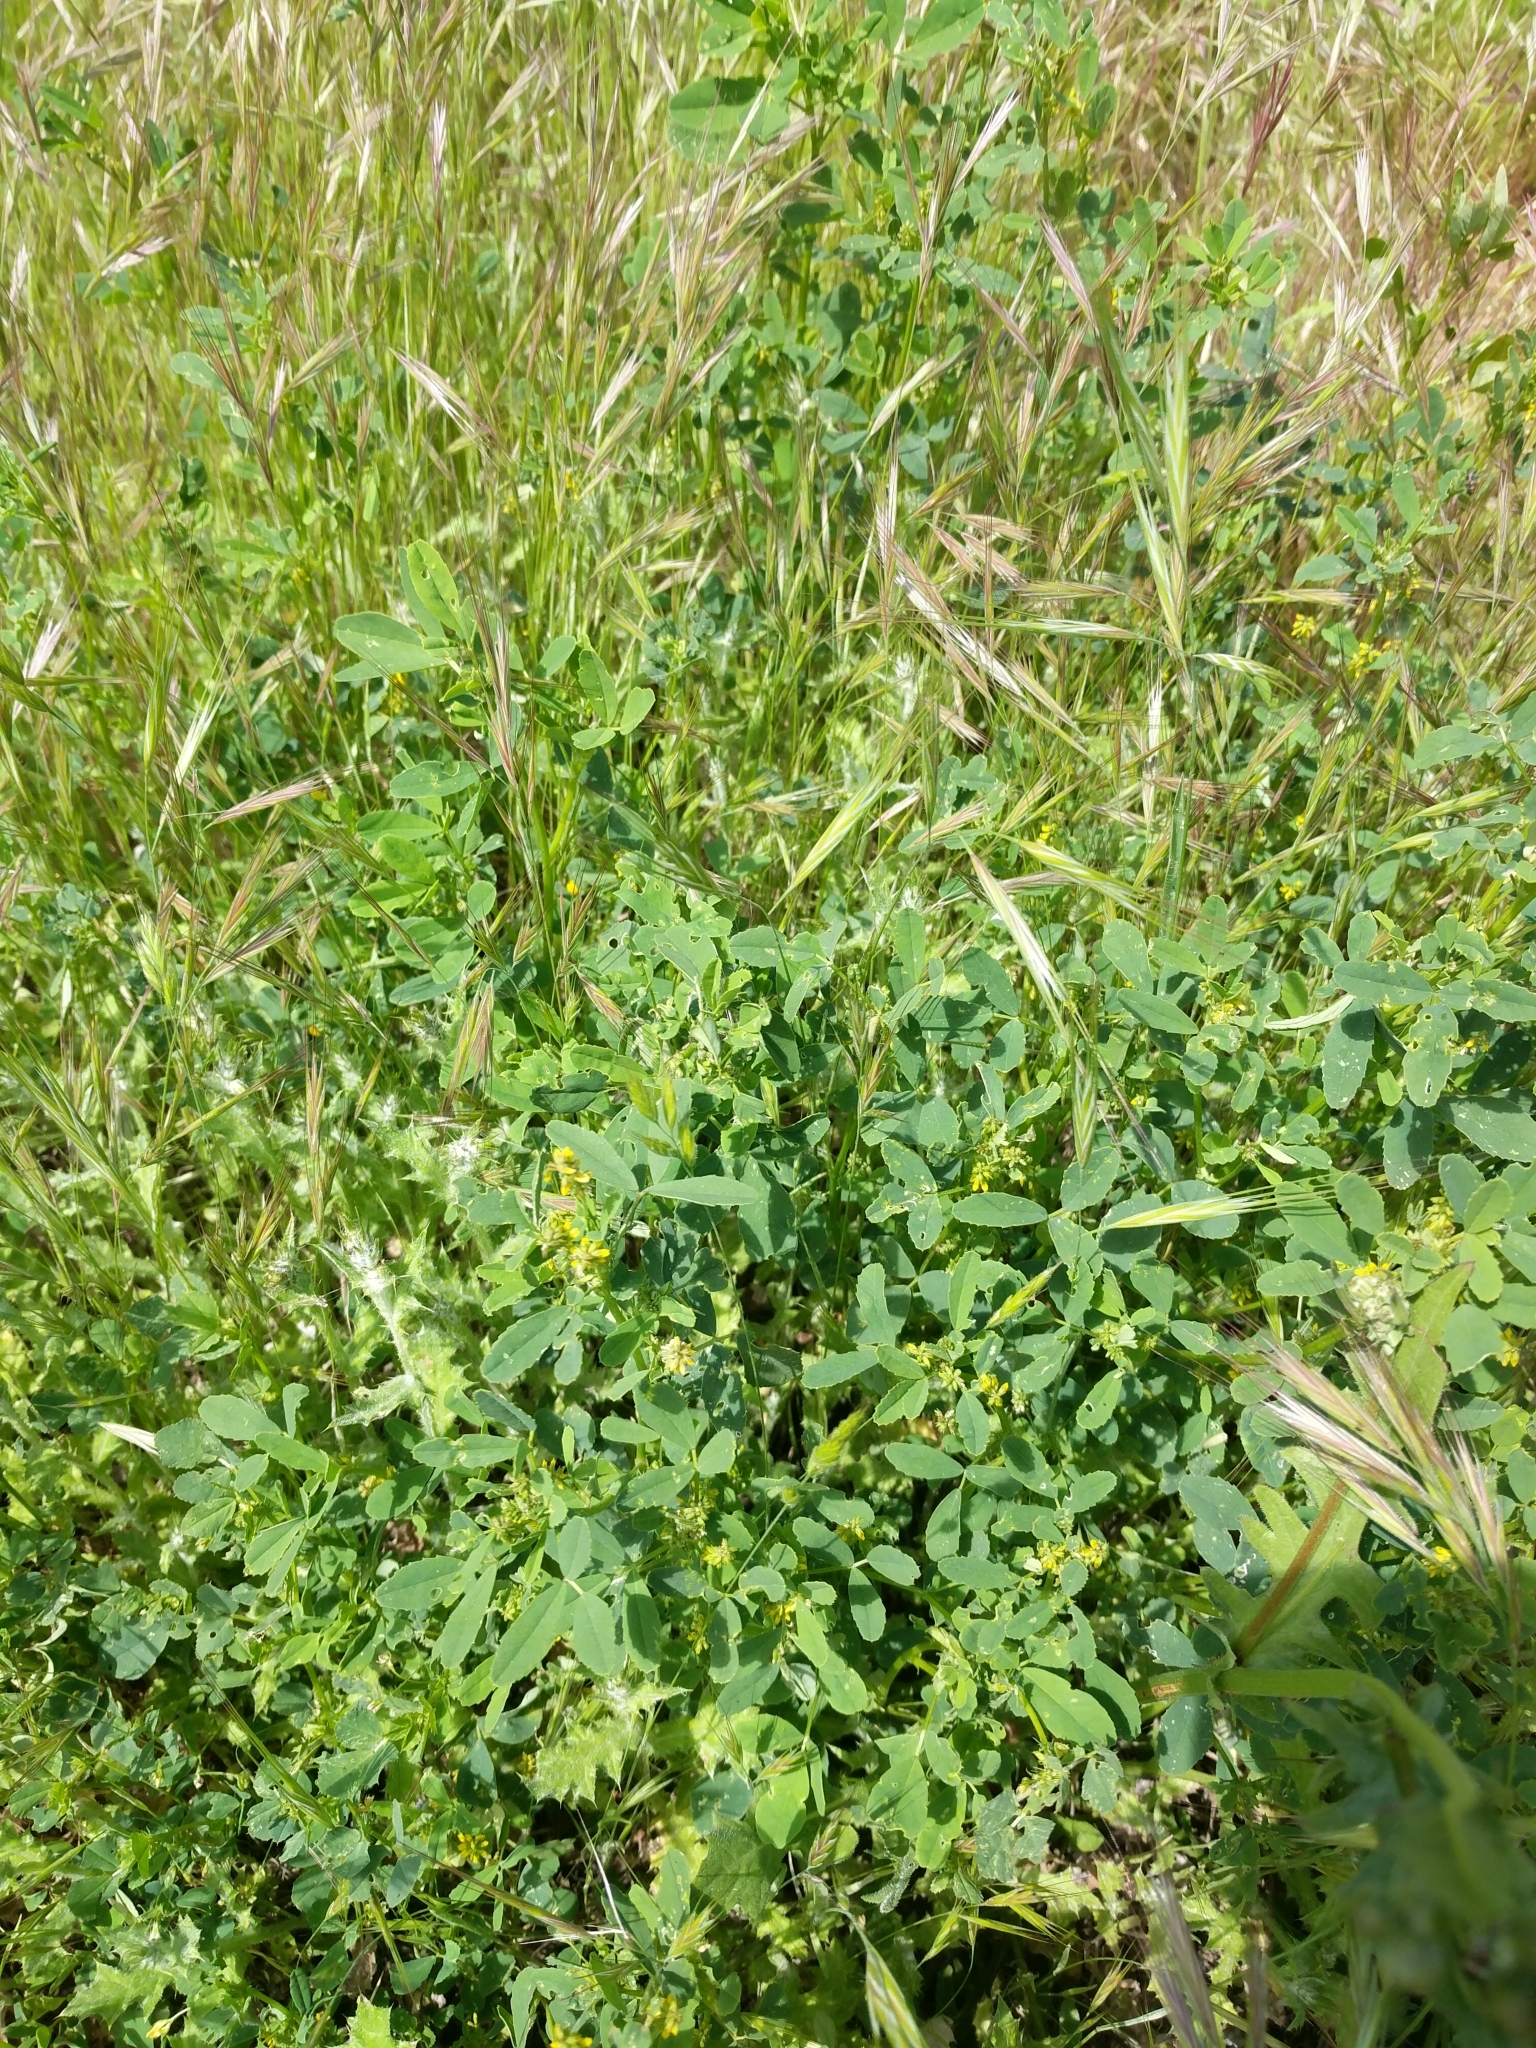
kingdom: Plantae
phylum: Tracheophyta
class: Magnoliopsida
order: Fabales
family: Fabaceae
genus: Melilotus
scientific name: Melilotus indicus
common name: Small melilot
